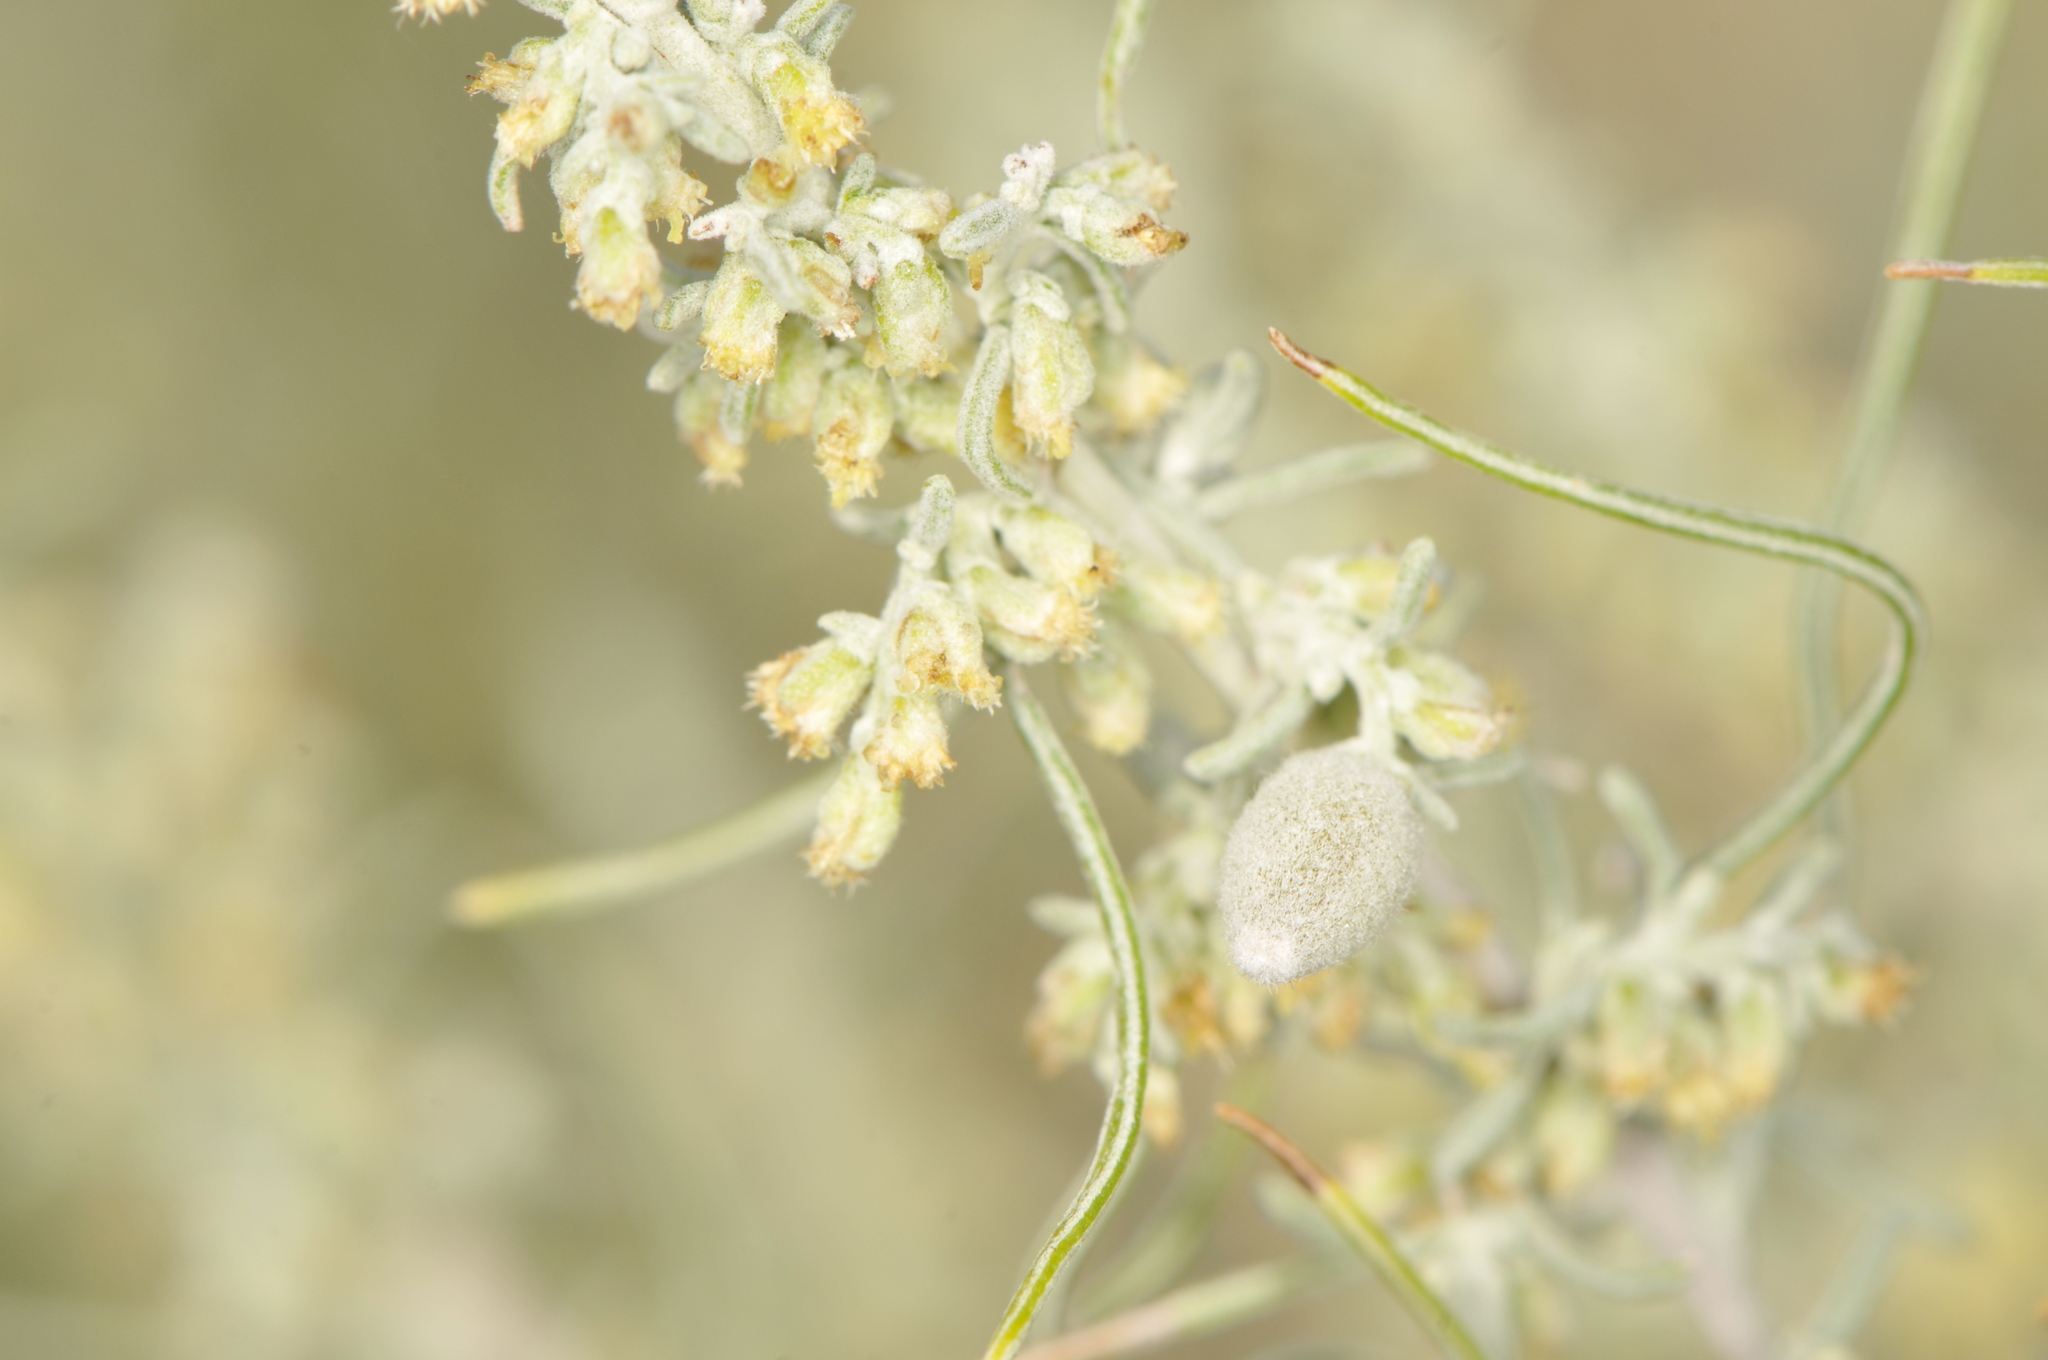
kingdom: Animalia
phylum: Arthropoda
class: Insecta
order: Diptera
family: Cecidomyiidae
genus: Rhopalomyia
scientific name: Rhopalomyia ampullaria
